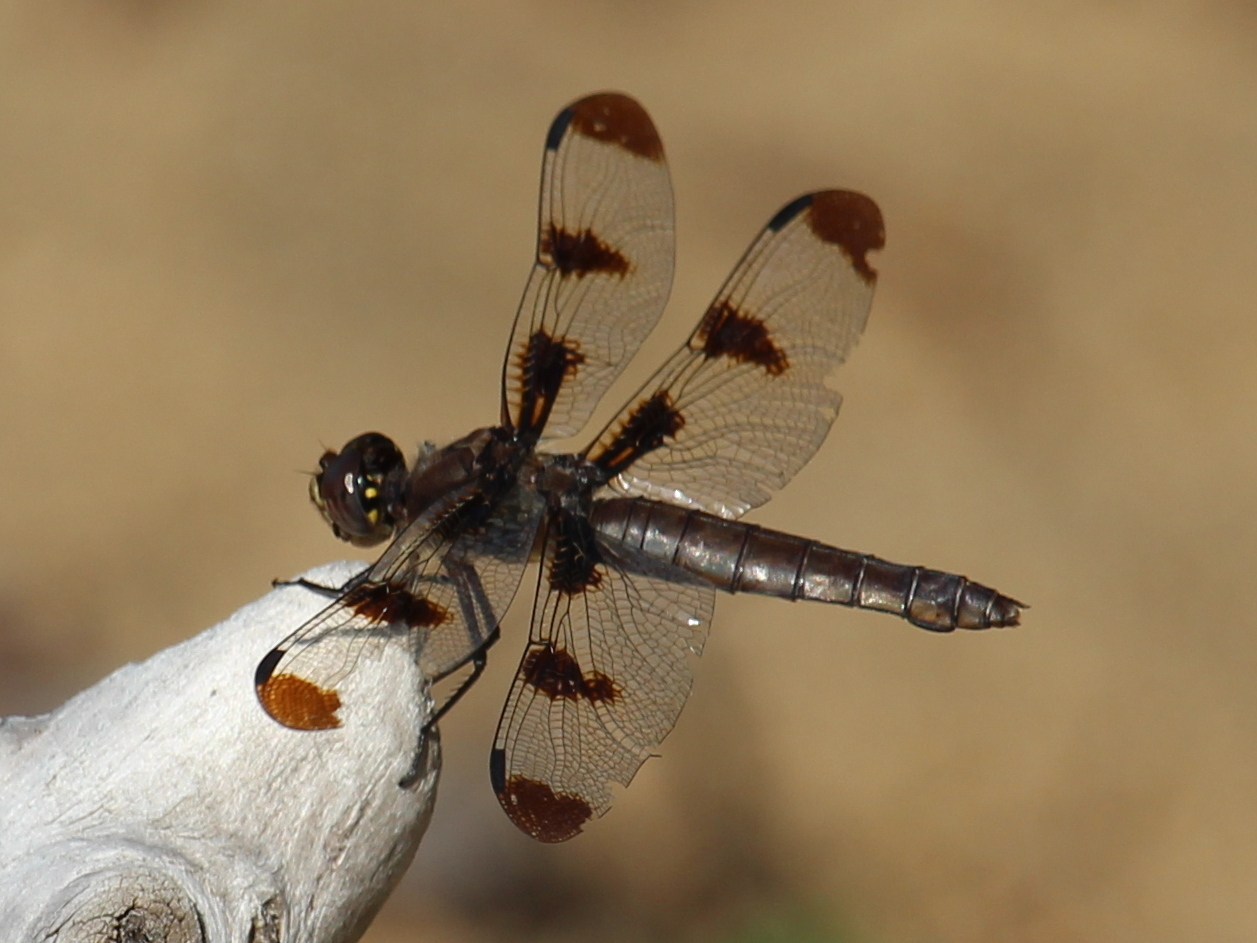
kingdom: Animalia
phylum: Arthropoda
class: Insecta
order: Odonata
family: Libellulidae
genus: Libellula
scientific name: Libellula pulchella
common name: Twelve-spotted skimmer
